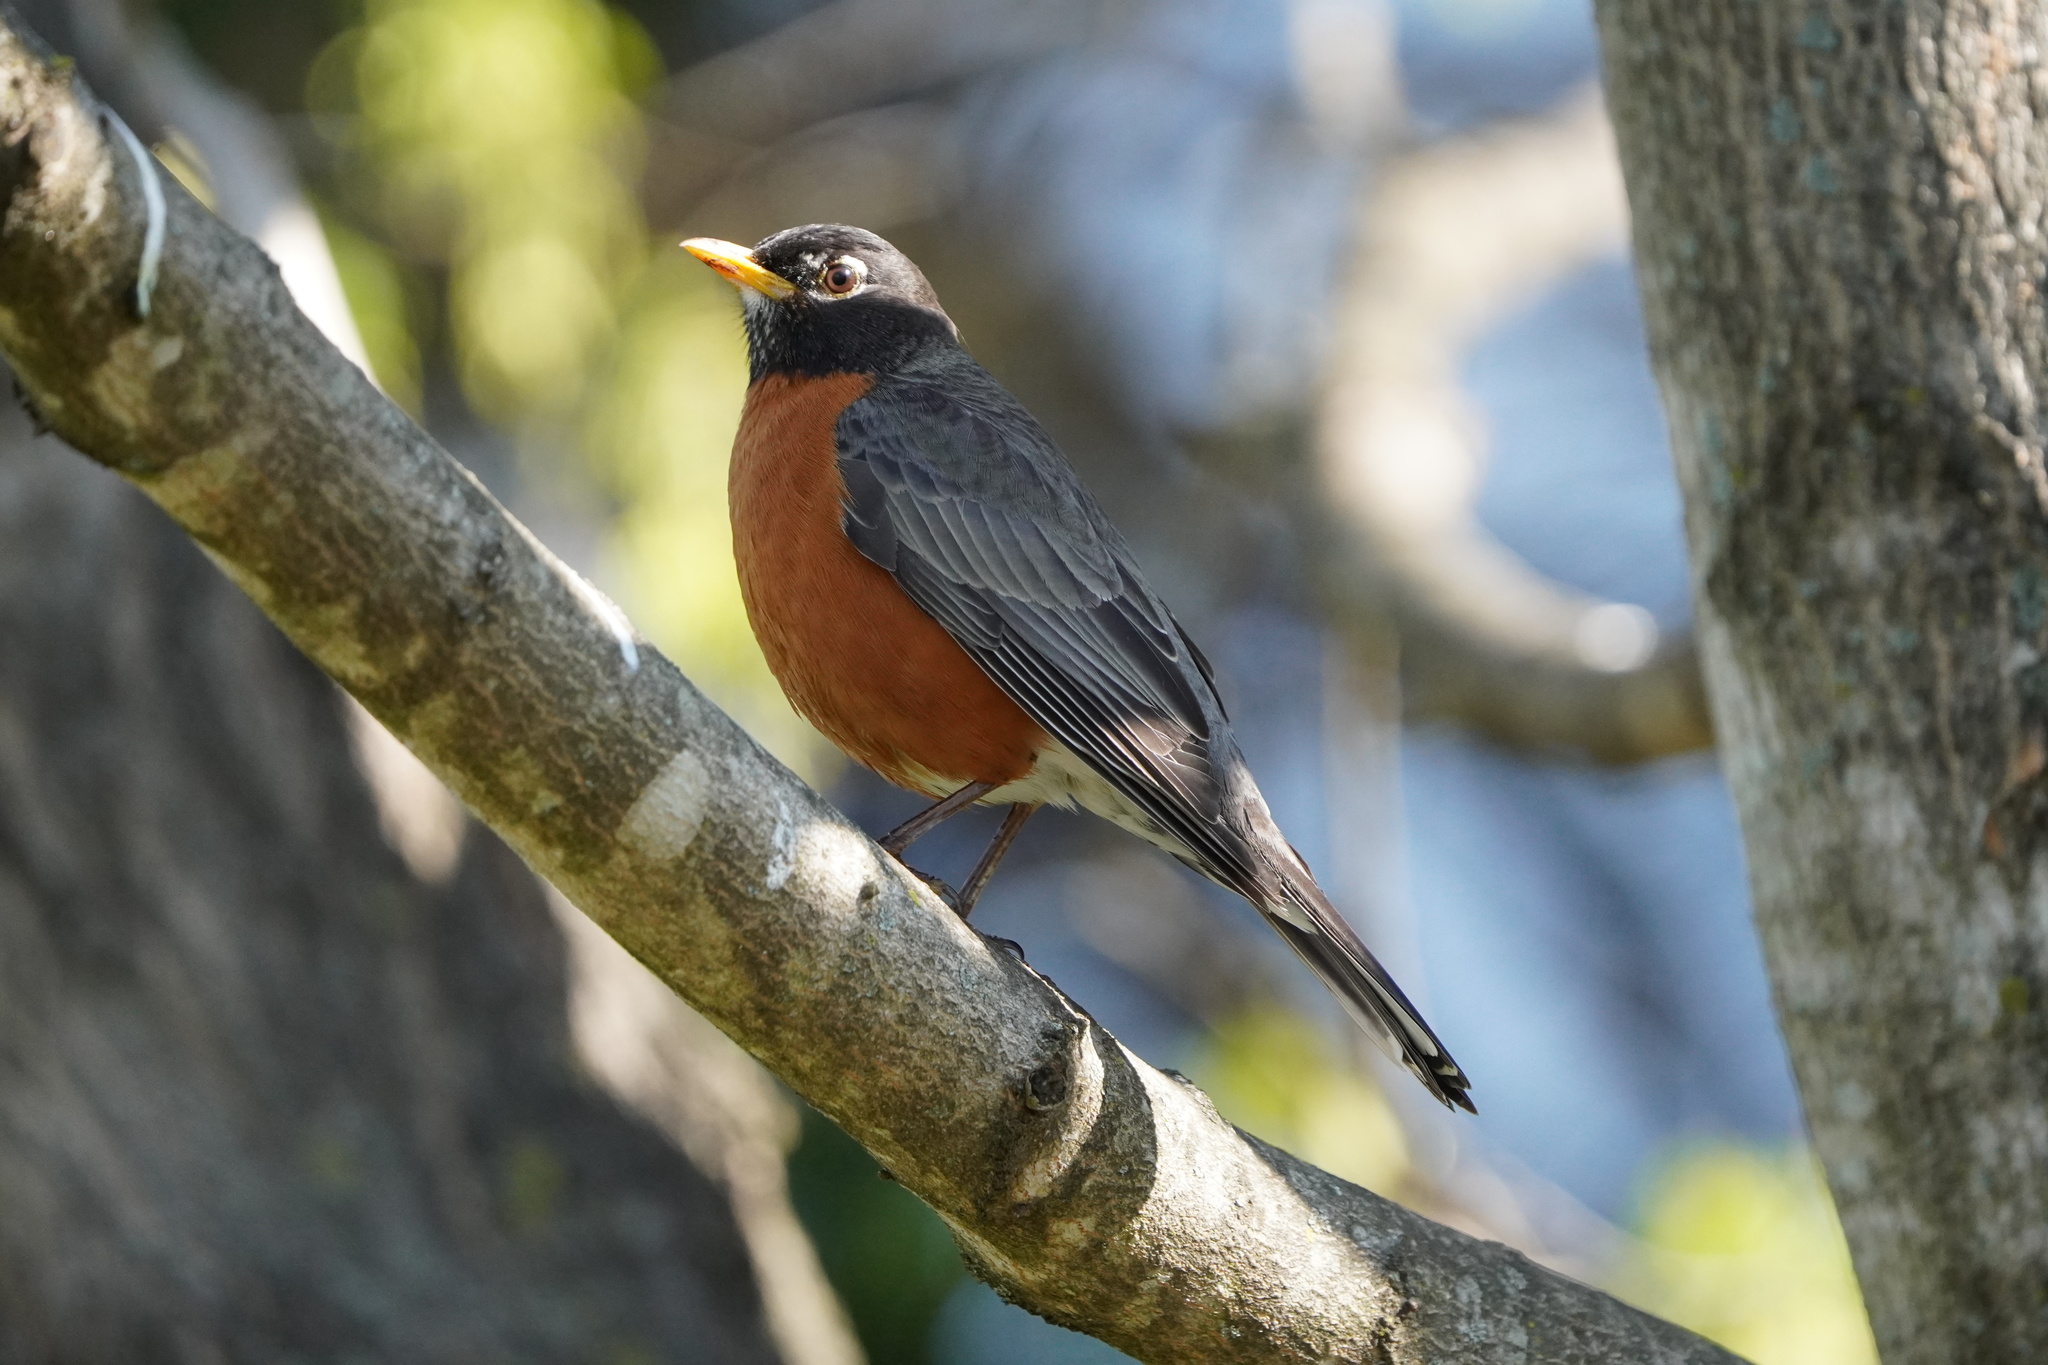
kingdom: Animalia
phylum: Chordata
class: Aves
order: Passeriformes
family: Turdidae
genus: Turdus
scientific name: Turdus migratorius
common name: American robin
